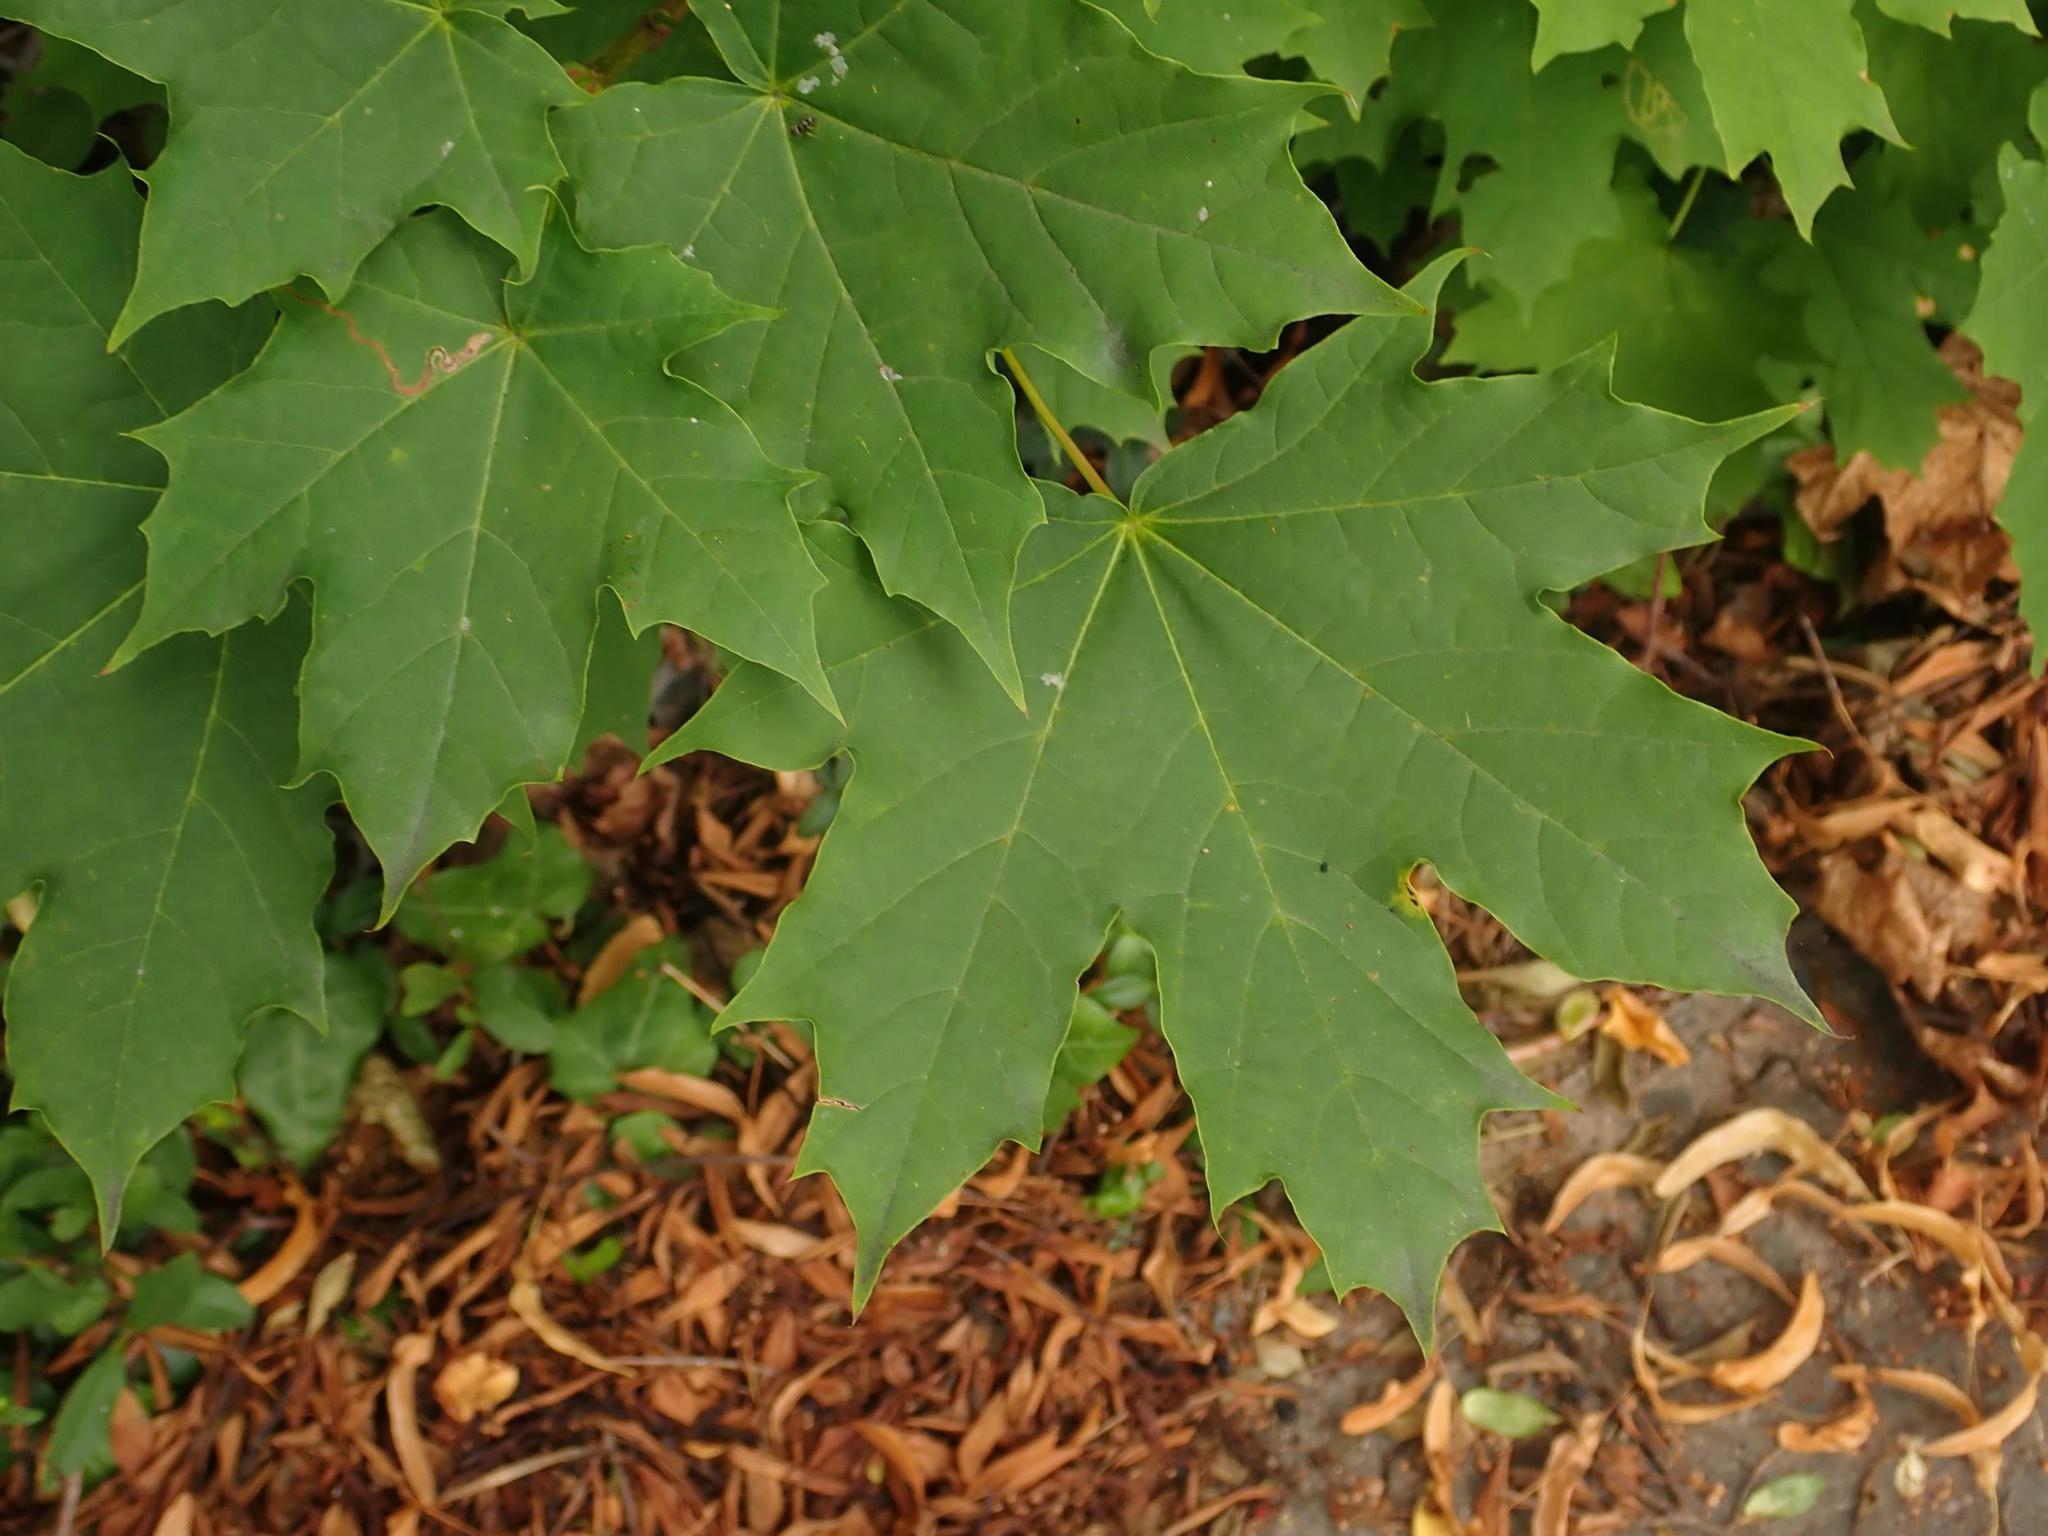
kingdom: Plantae
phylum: Tracheophyta
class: Magnoliopsida
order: Sapindales
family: Sapindaceae
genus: Acer
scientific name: Acer platanoides
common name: Norway maple
